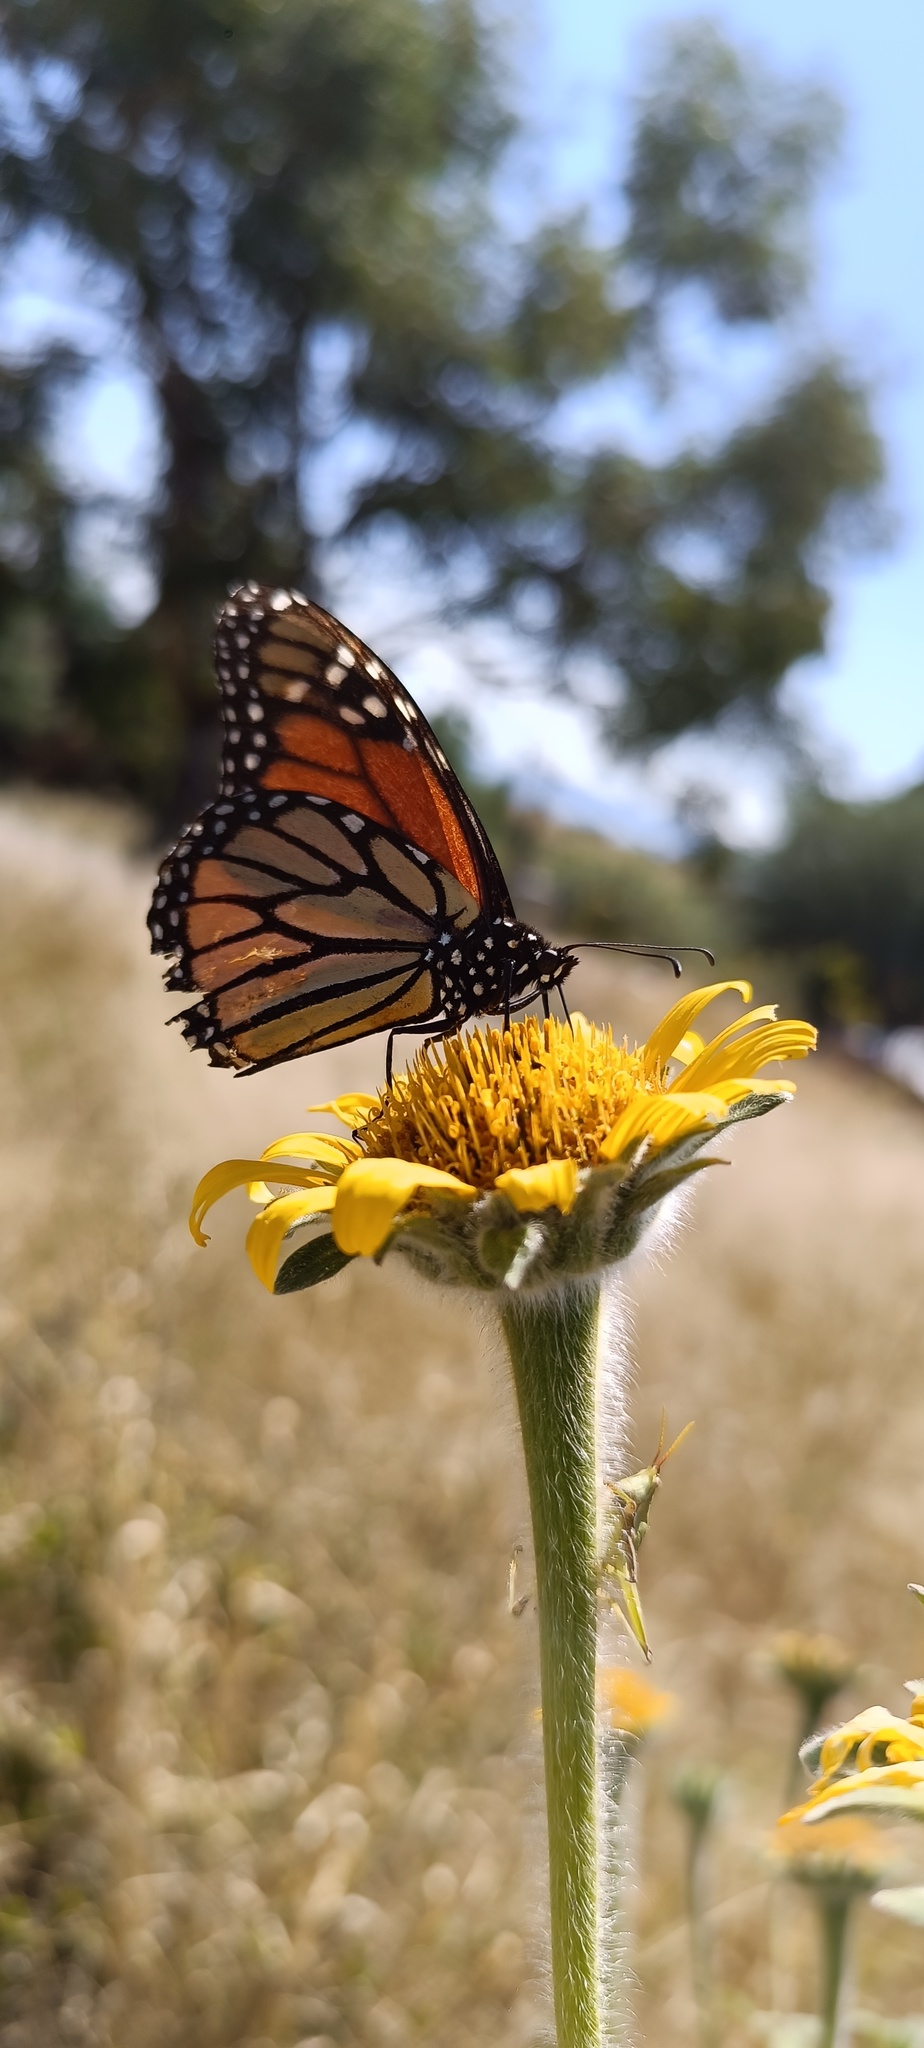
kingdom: Plantae
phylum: Tracheophyta
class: Magnoliopsida
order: Asterales
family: Asteraceae
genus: Tithonia
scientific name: Tithonia tubaeformis
